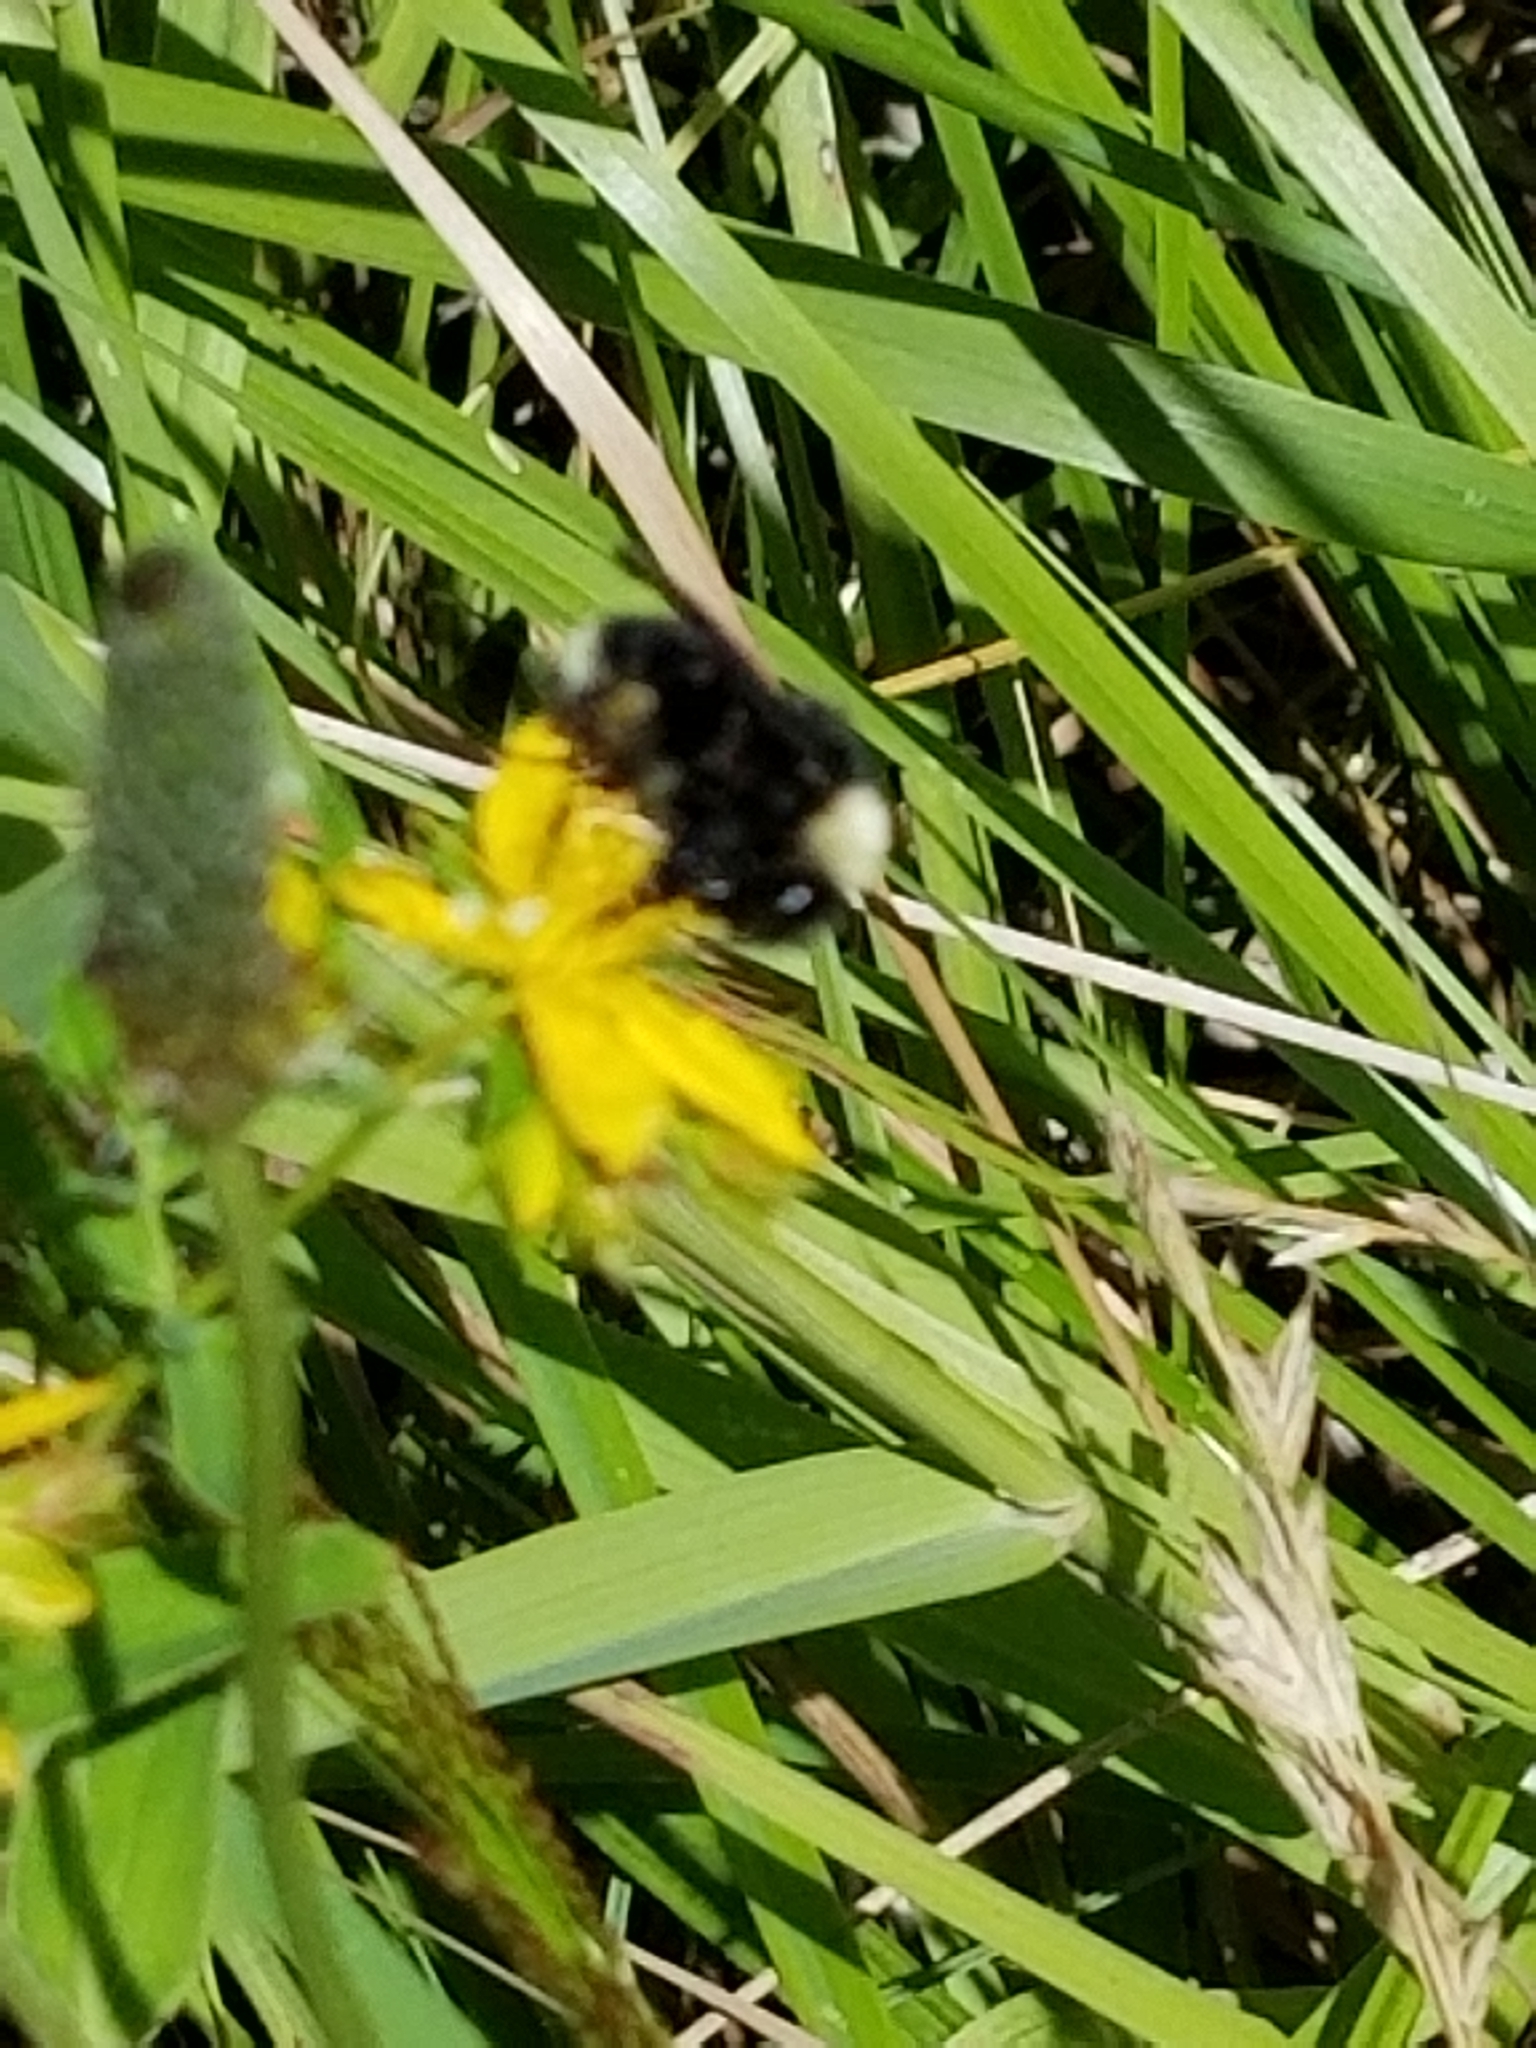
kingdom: Animalia
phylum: Arthropoda
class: Insecta
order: Hymenoptera
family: Apidae
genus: Bombus
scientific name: Bombus californicus
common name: California bumble bee
